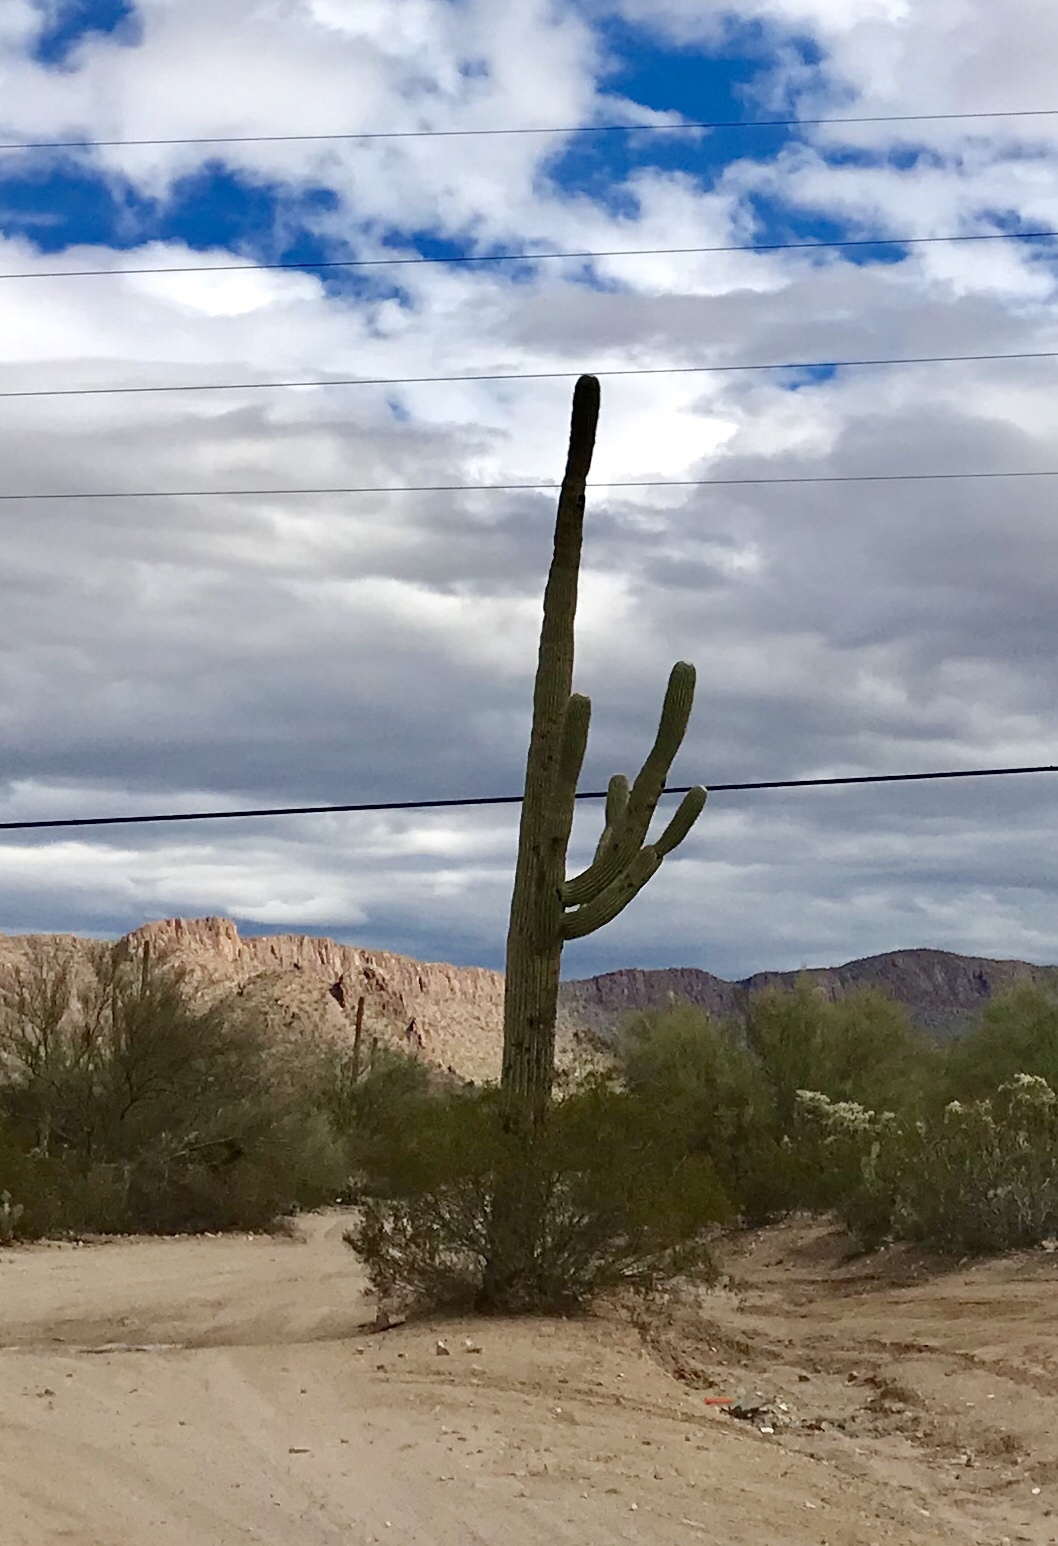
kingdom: Plantae
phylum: Tracheophyta
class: Magnoliopsida
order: Caryophyllales
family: Cactaceae
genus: Carnegiea
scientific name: Carnegiea gigantea
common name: Saguaro
